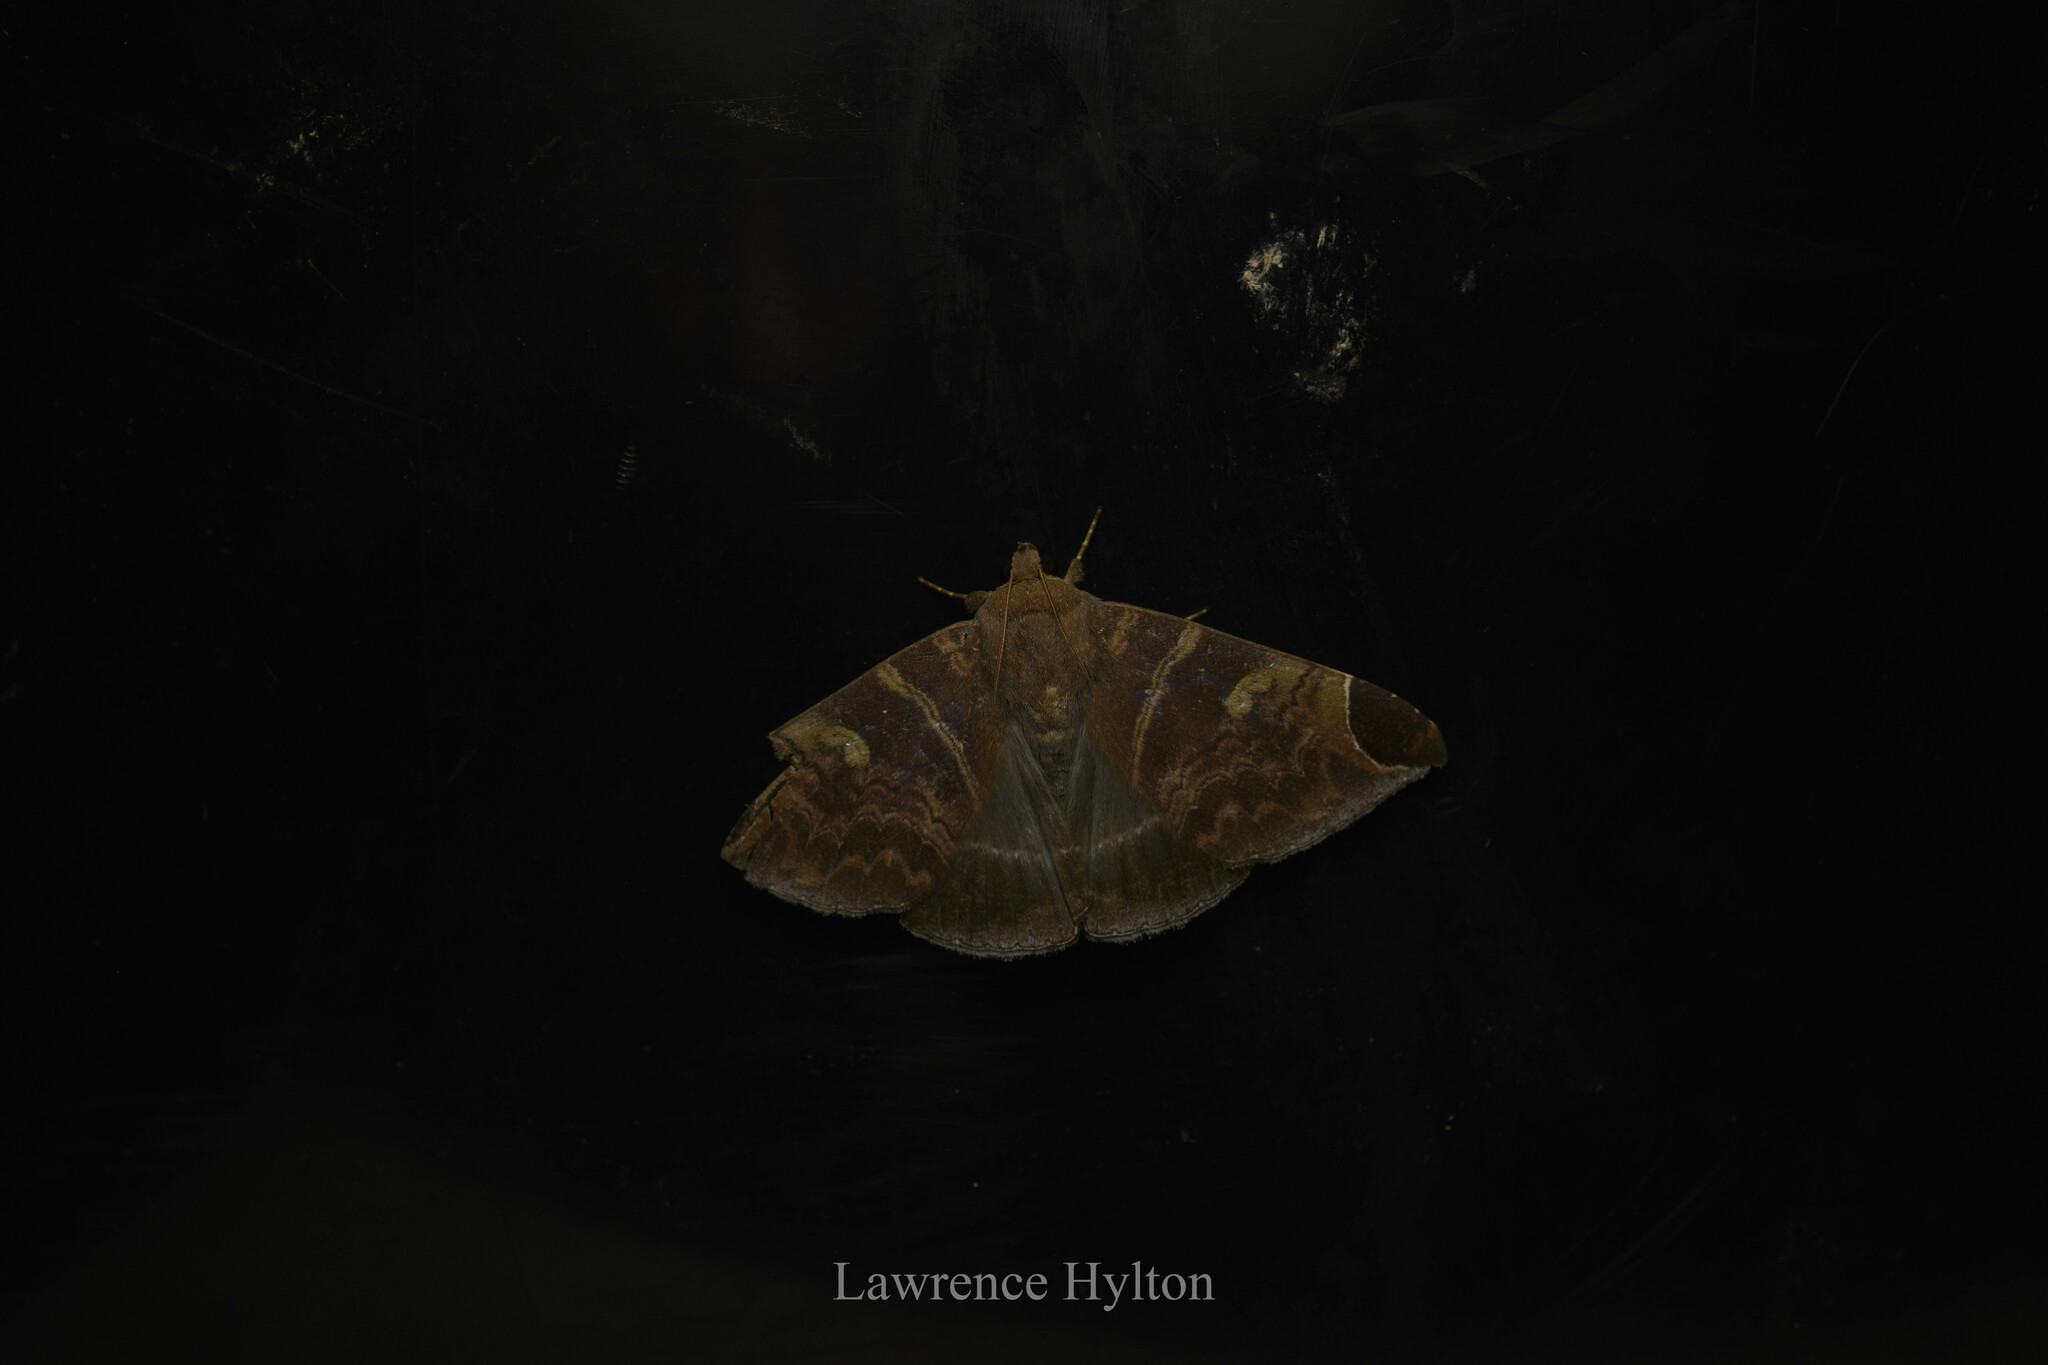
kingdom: Animalia
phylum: Arthropoda
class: Insecta
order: Lepidoptera
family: Erebidae
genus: Pindara
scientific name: Pindara illibata
